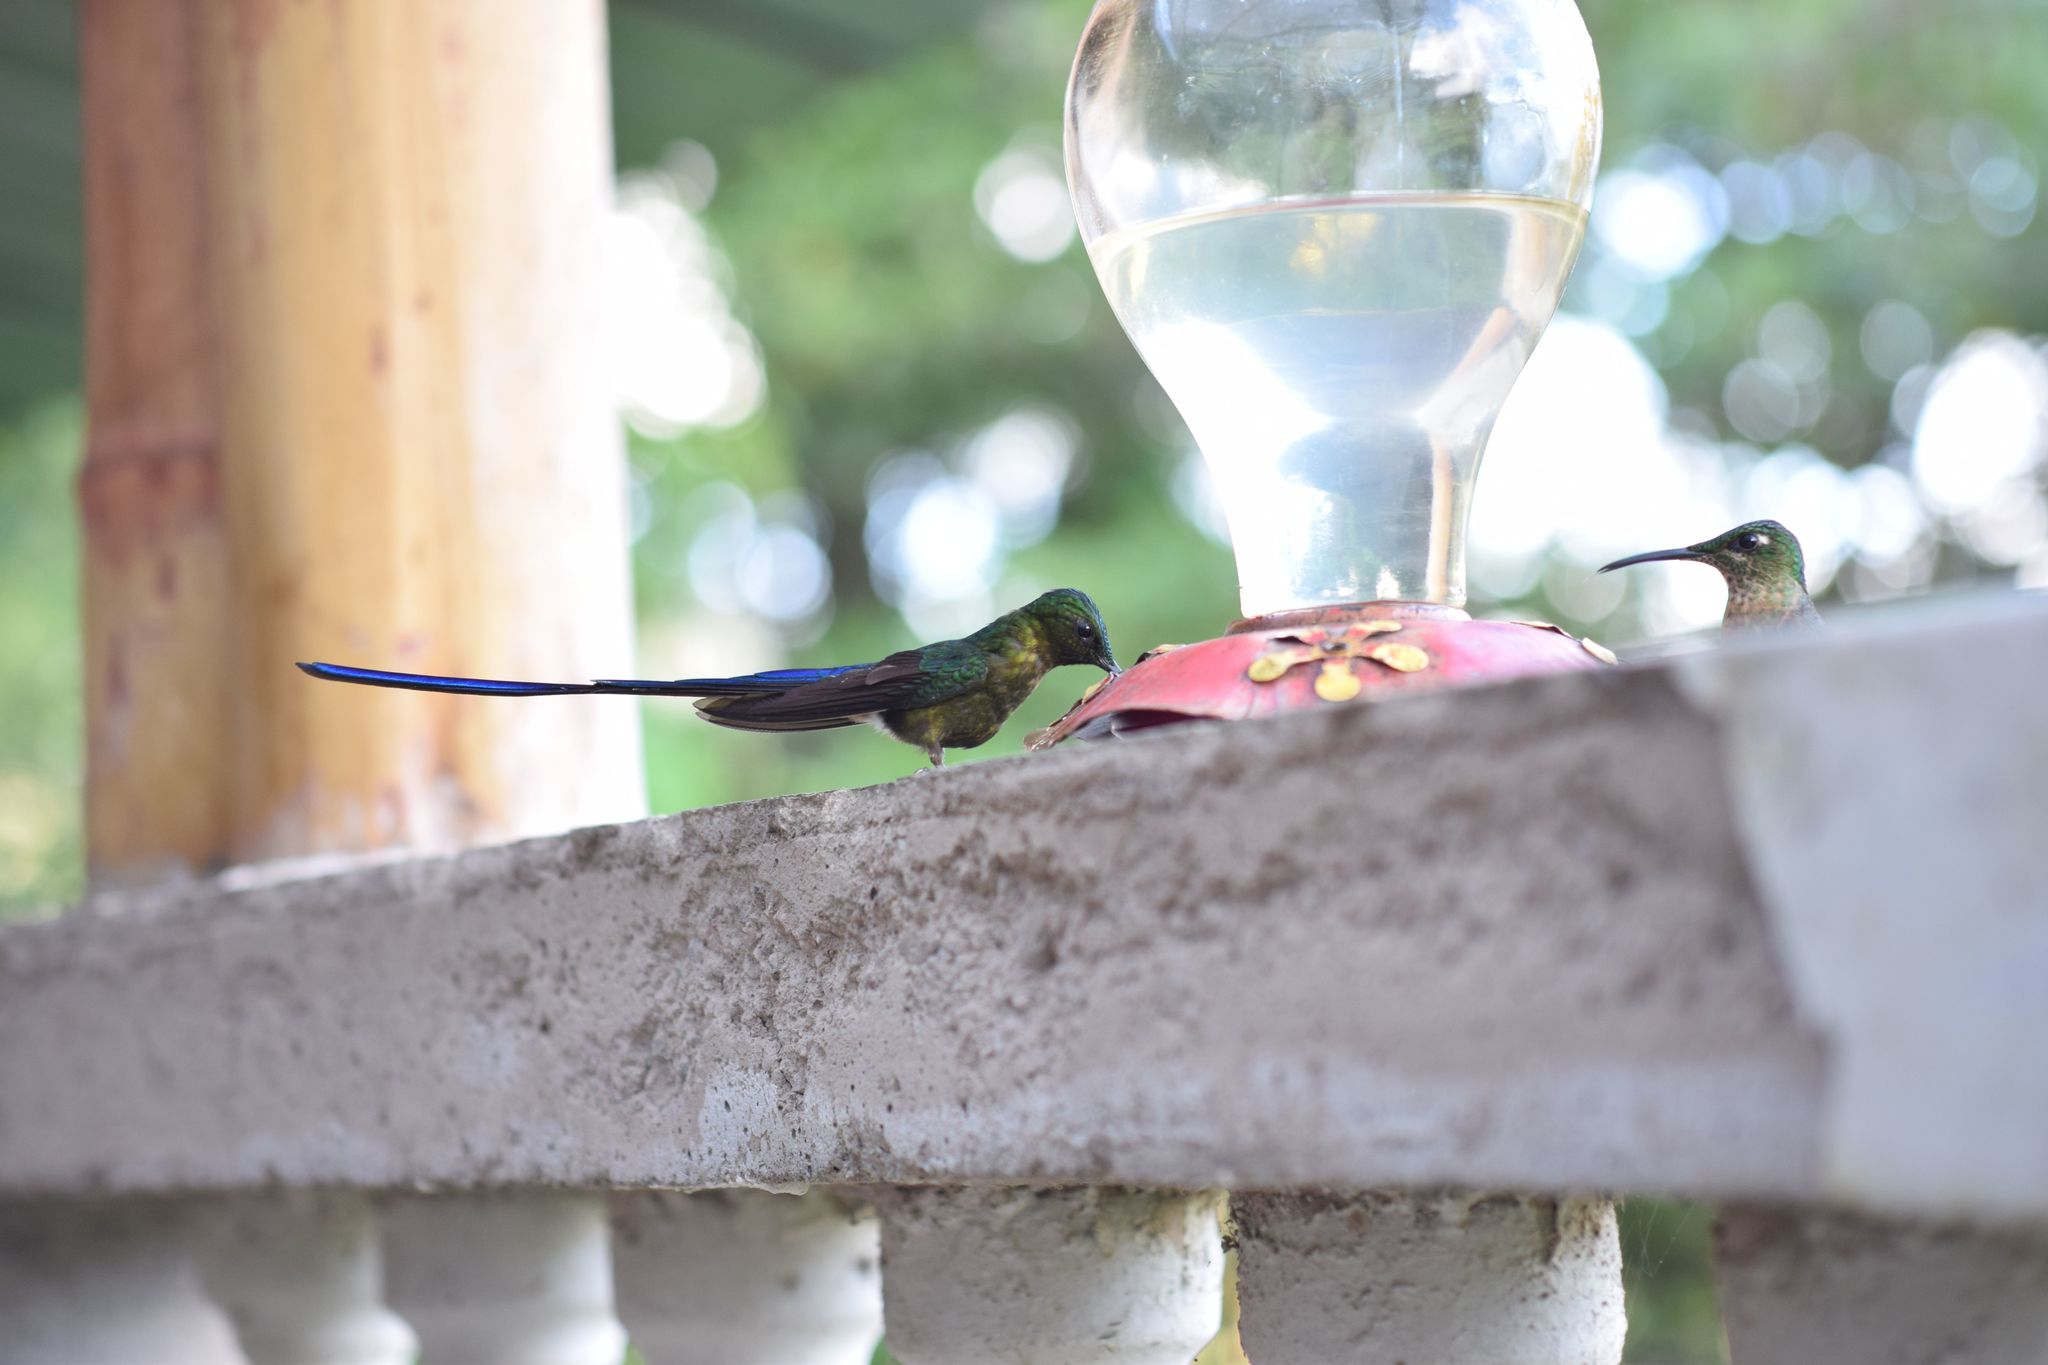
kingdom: Animalia
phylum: Chordata
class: Aves
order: Apodiformes
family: Trochilidae
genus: Aglaiocercus
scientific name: Aglaiocercus coelestis
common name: Violet-tailed sylph
